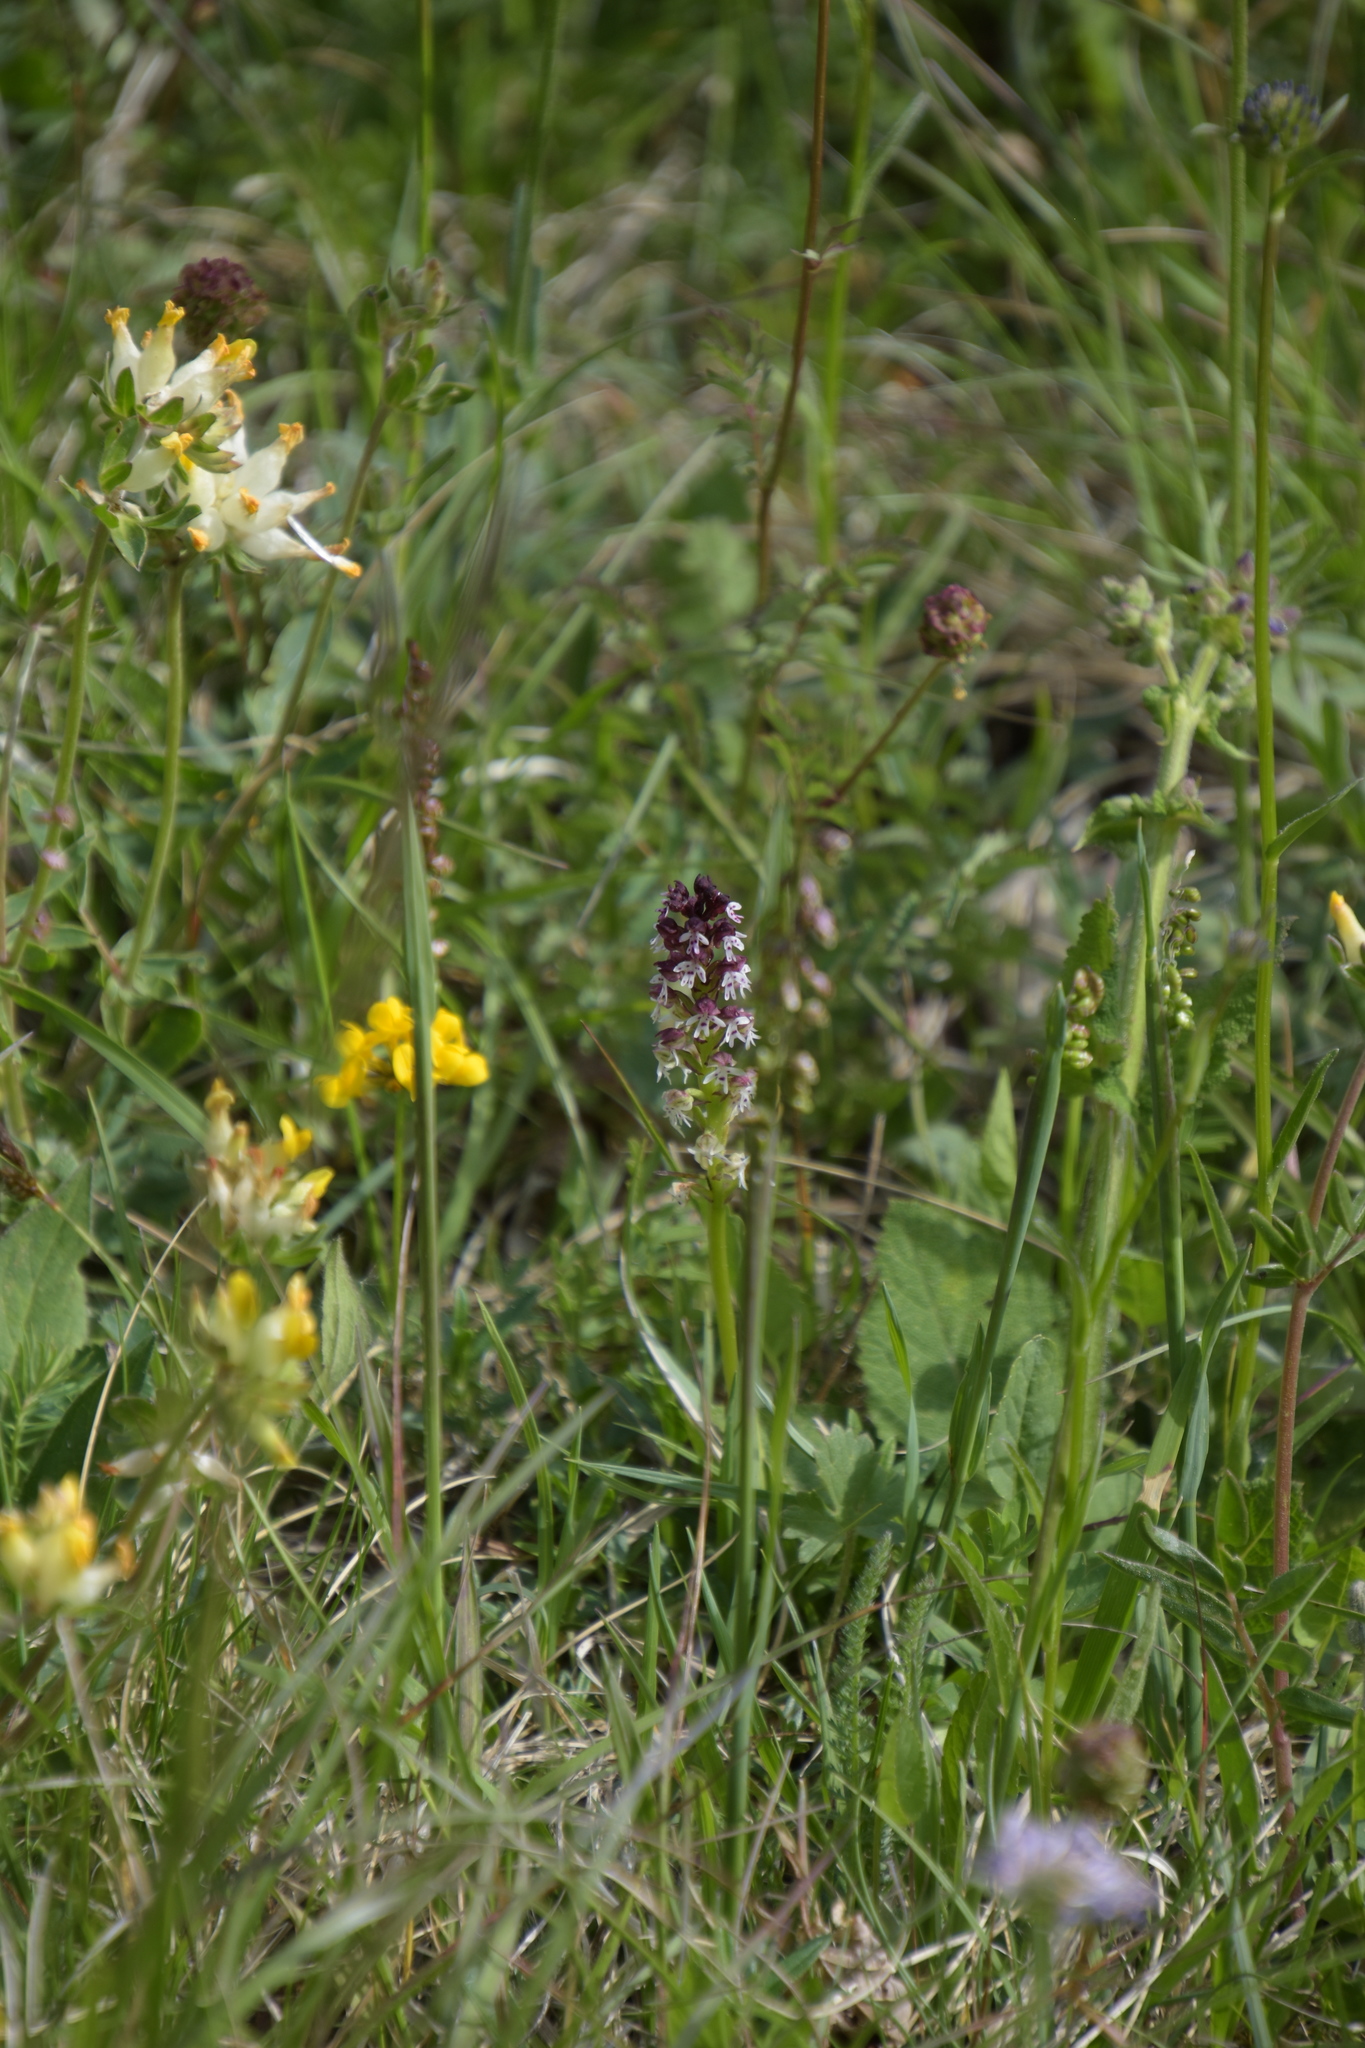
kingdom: Plantae
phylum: Tracheophyta
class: Liliopsida
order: Asparagales
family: Orchidaceae
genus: Neotinea
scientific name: Neotinea ustulata
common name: Burnt orchid
